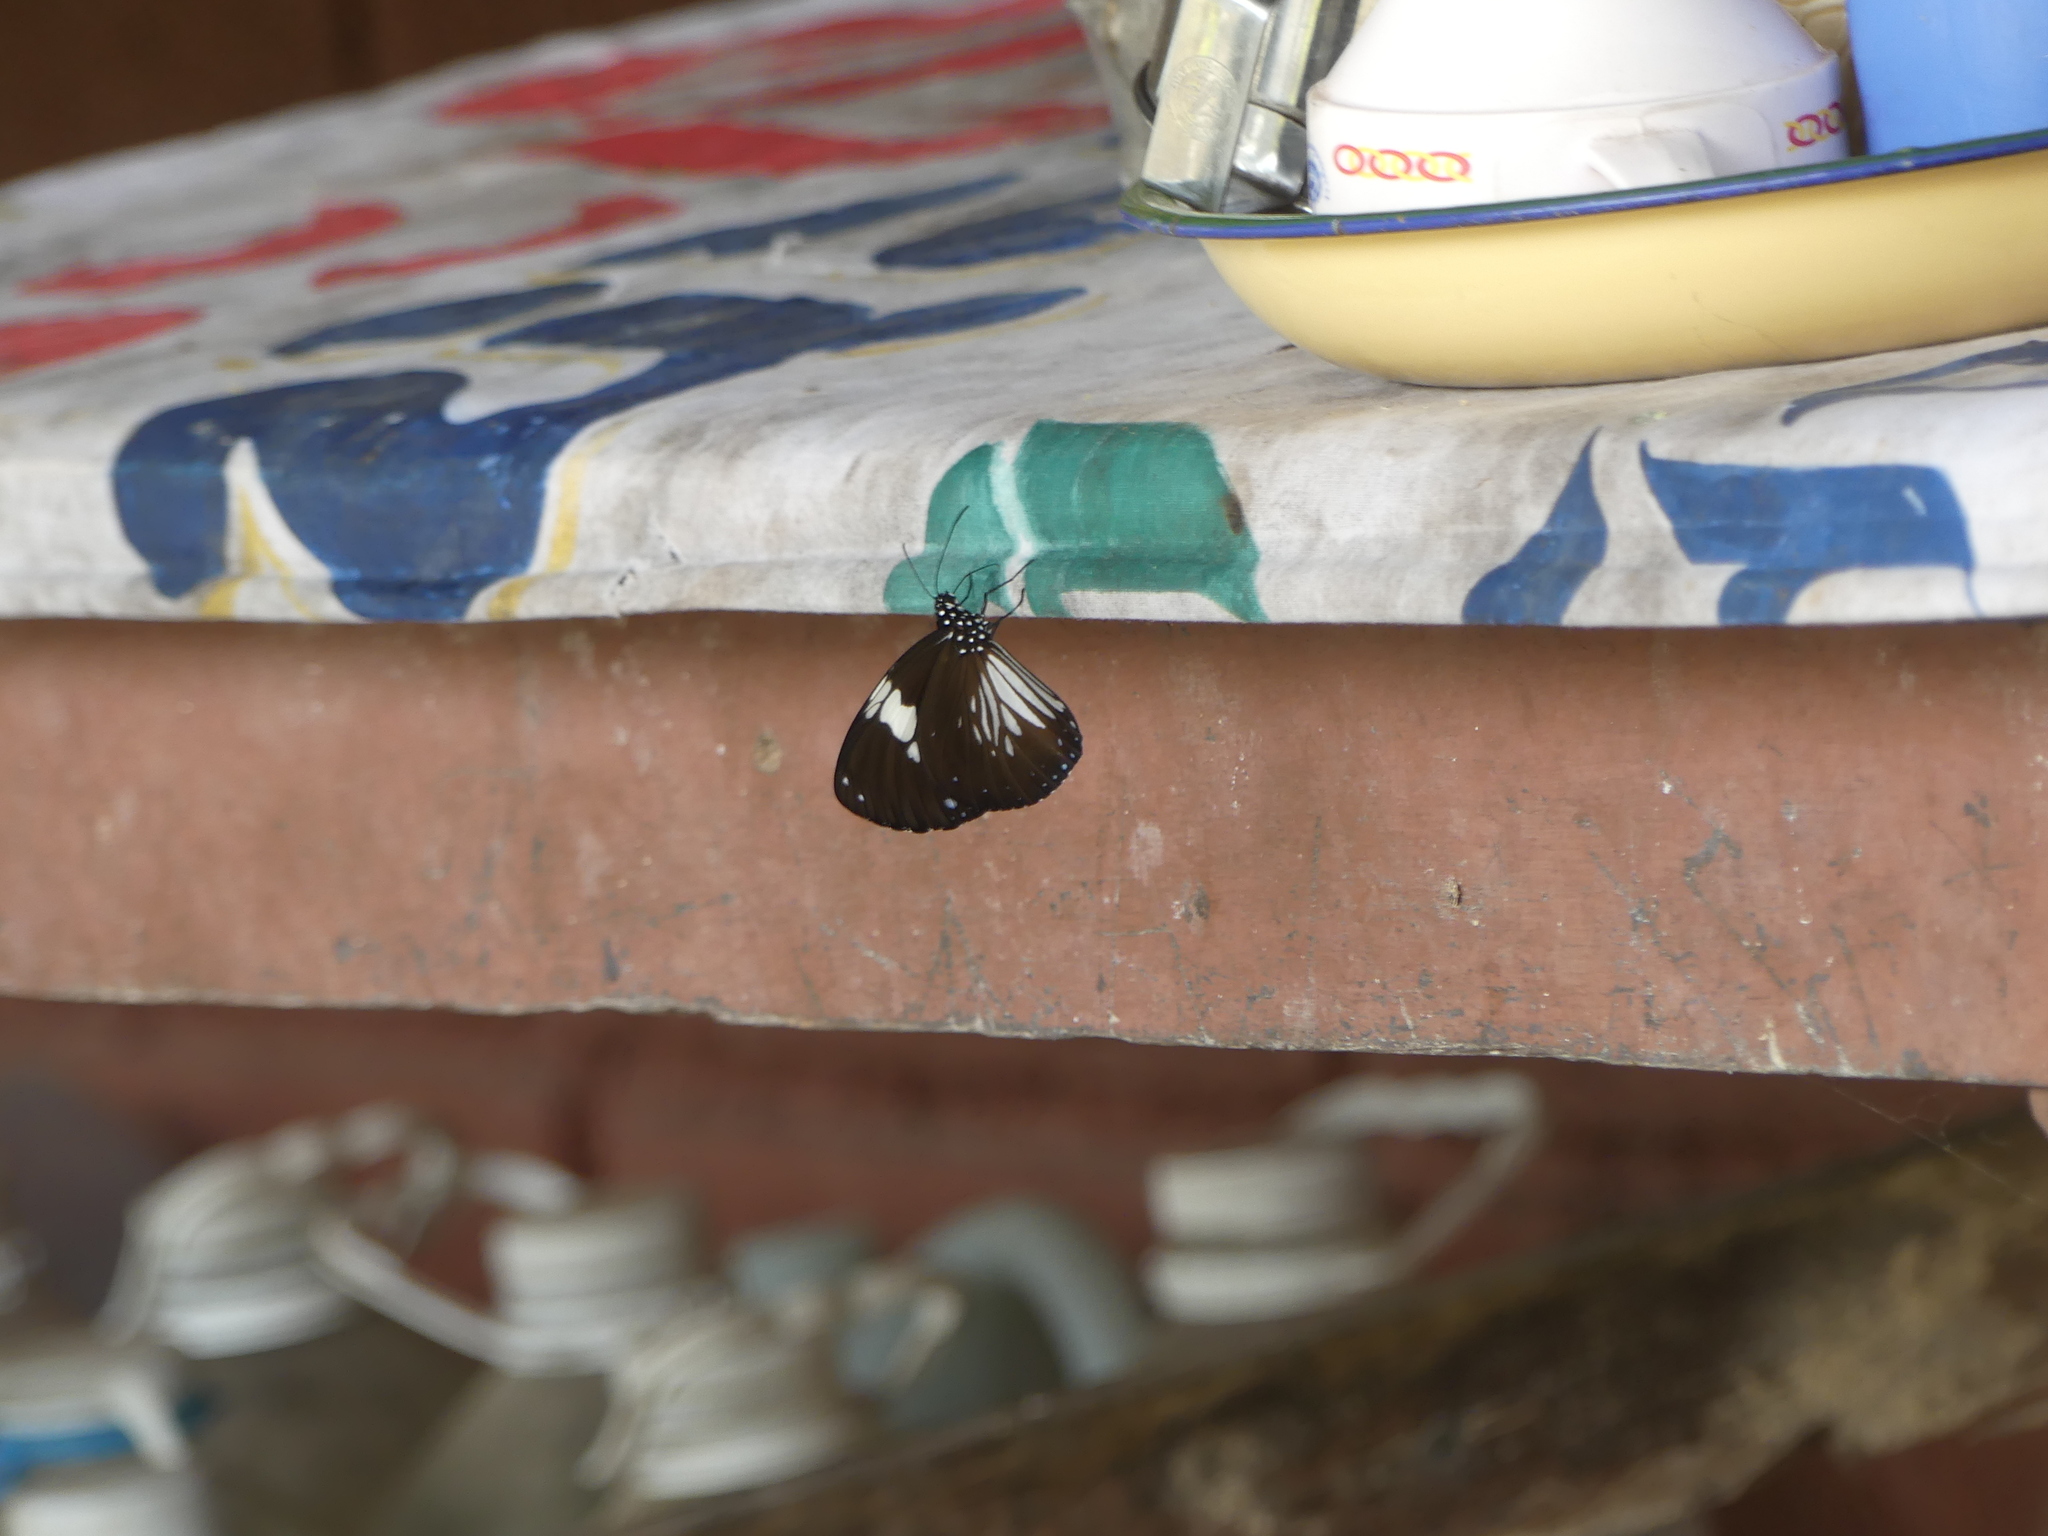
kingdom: Animalia
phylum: Arthropoda
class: Insecta
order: Lepidoptera
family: Nymphalidae
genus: Euploea
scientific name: Euploea radamanthus
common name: Magpie crow butterfly
